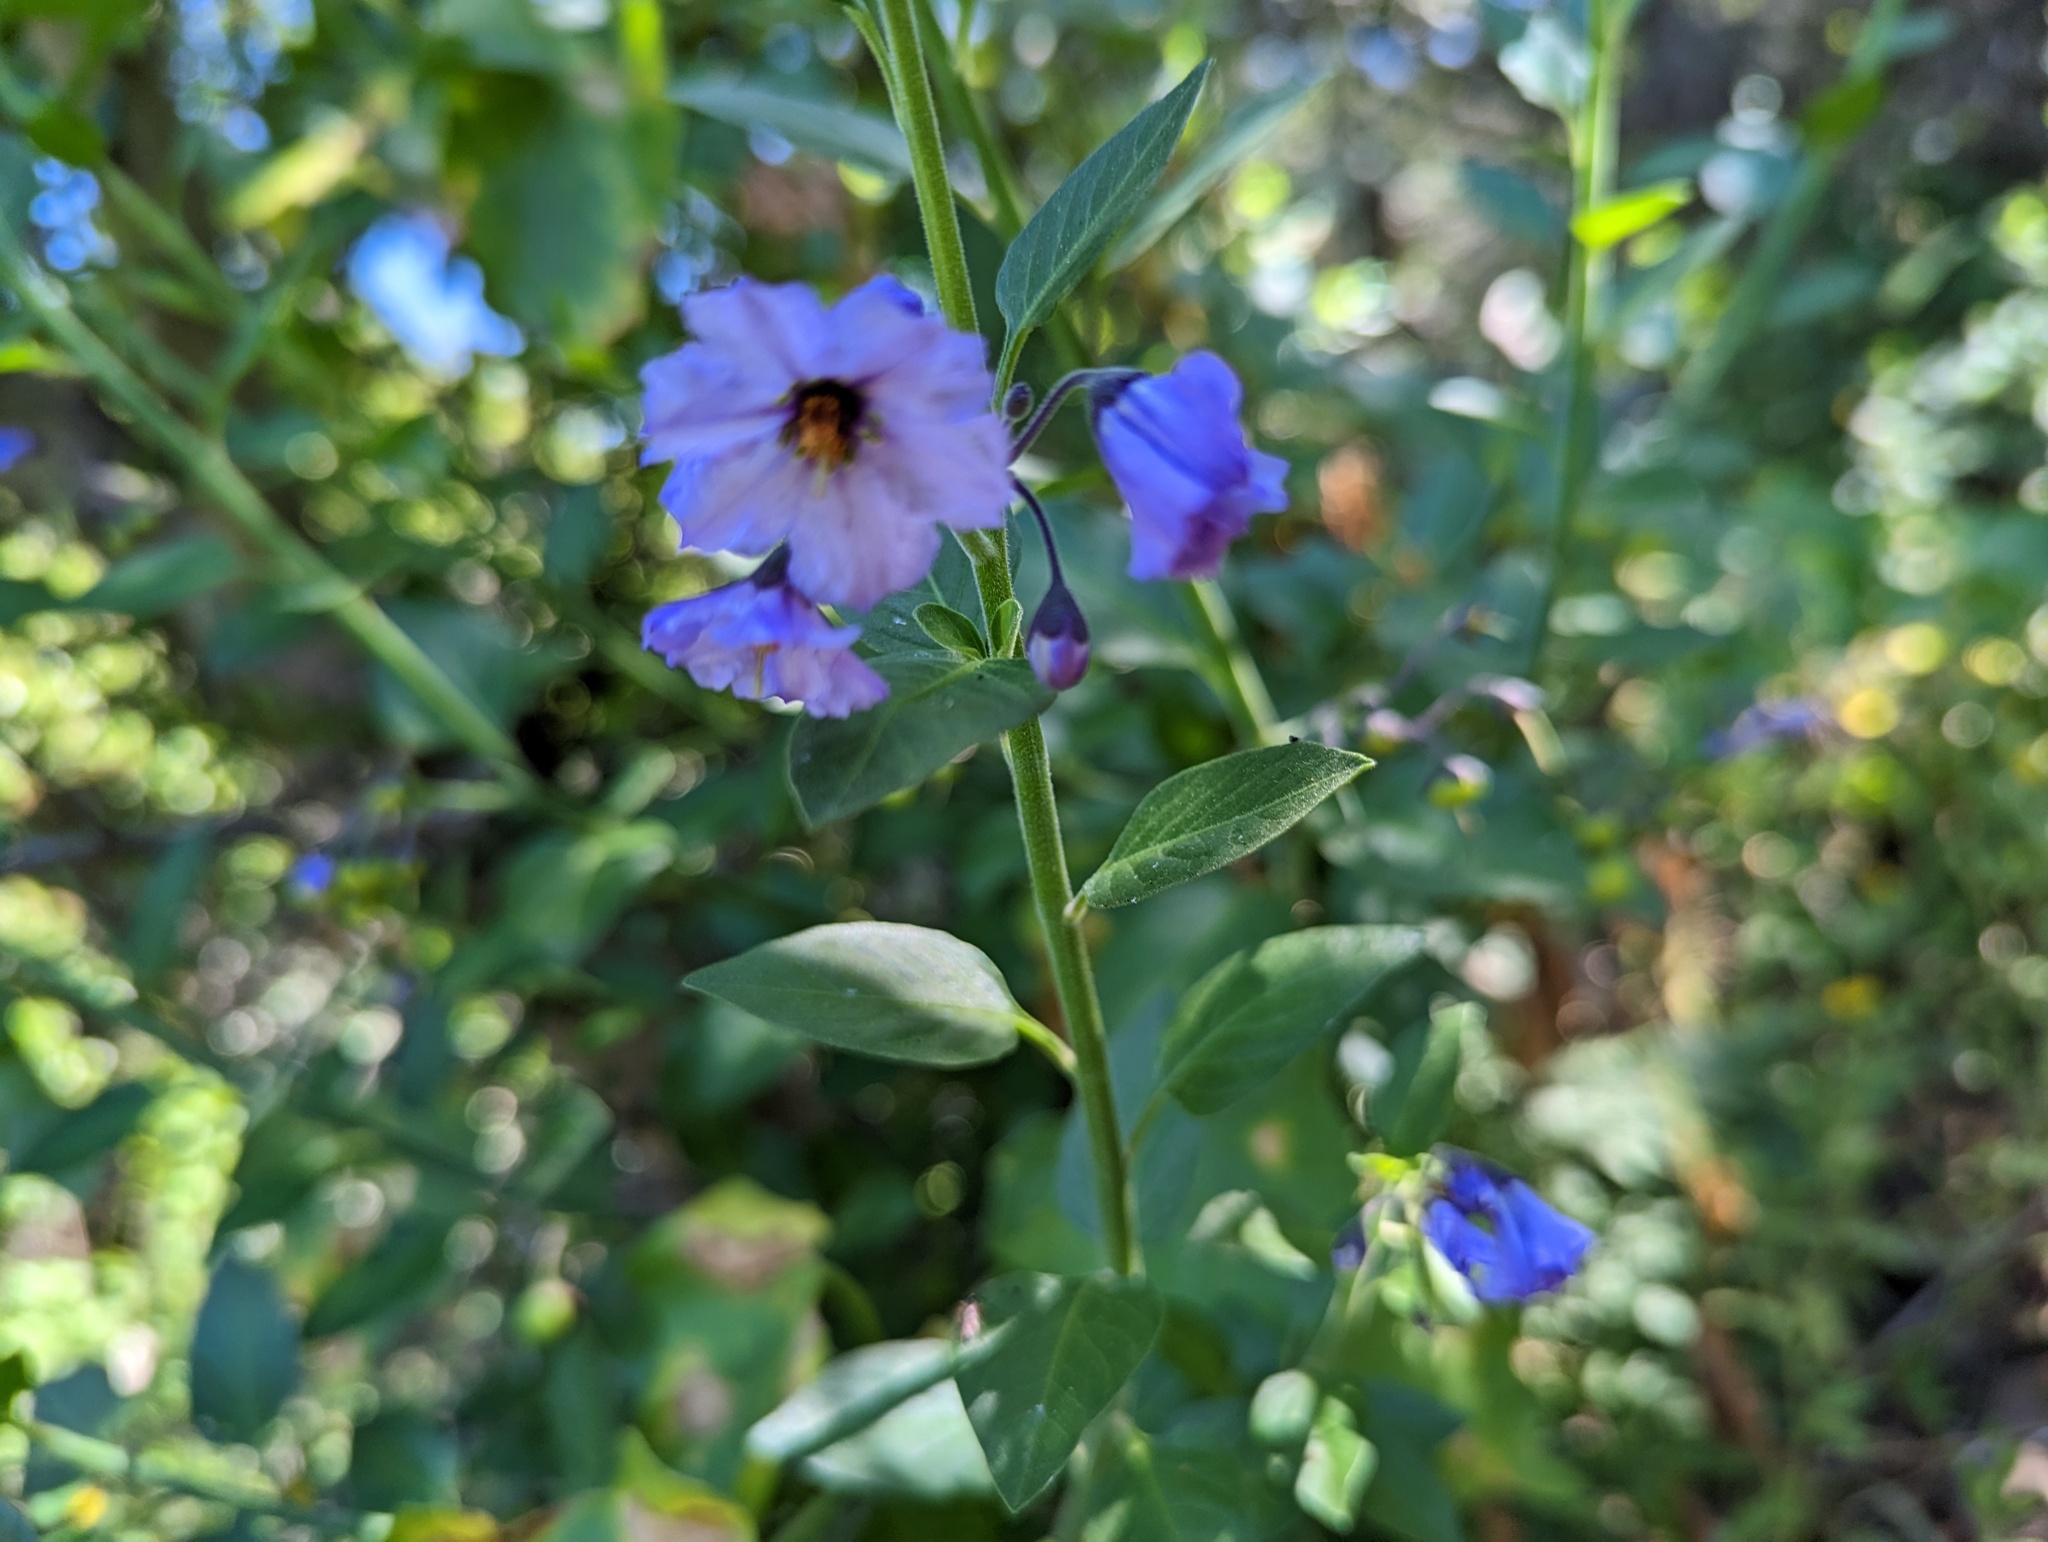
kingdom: Plantae
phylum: Tracheophyta
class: Magnoliopsida
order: Solanales
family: Solanaceae
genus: Solanum
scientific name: Solanum umbelliferum
